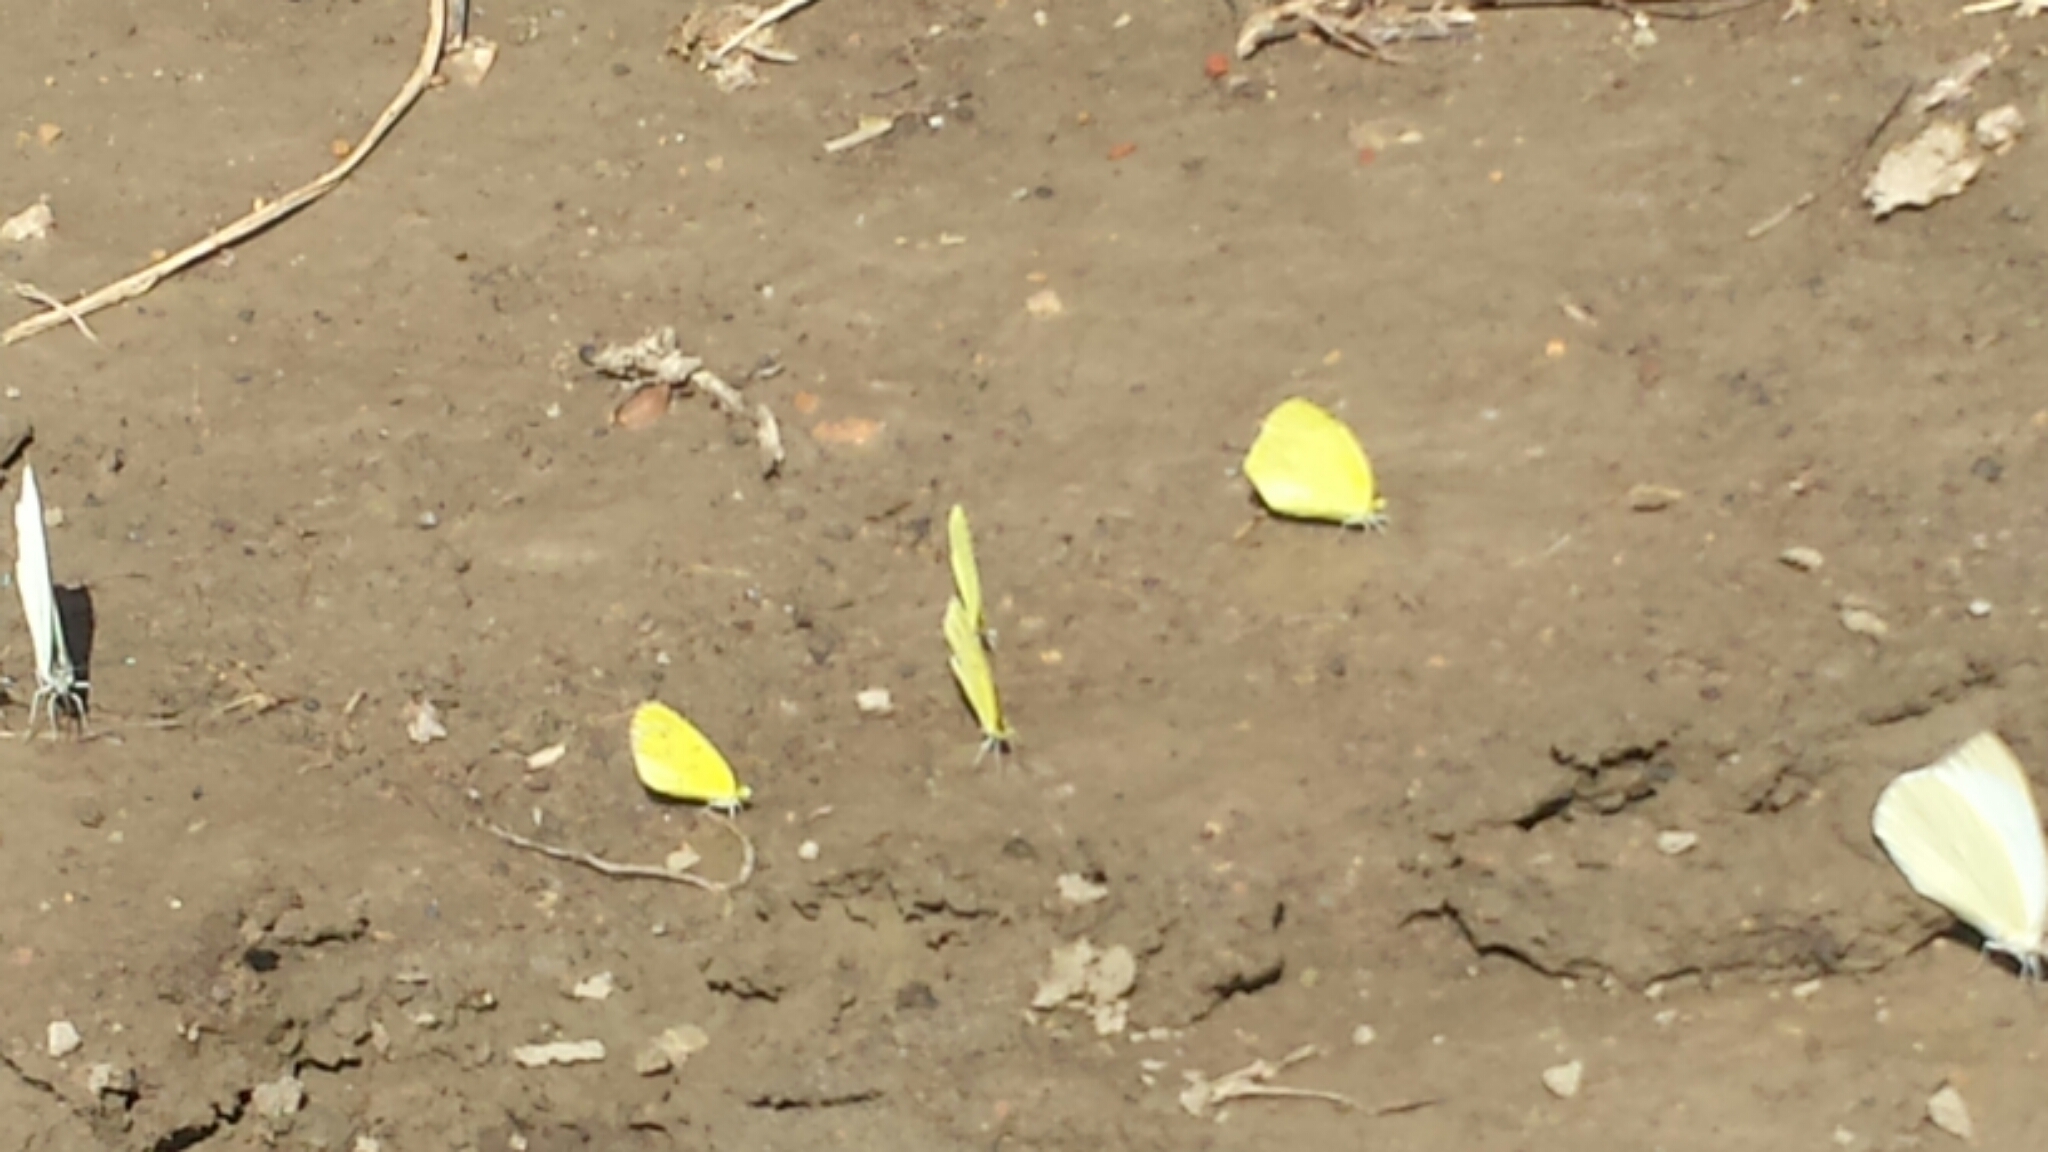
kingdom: Animalia
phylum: Arthropoda
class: Insecta
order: Lepidoptera
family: Pieridae
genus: Ascia
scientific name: Ascia monuste
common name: Great southern white
